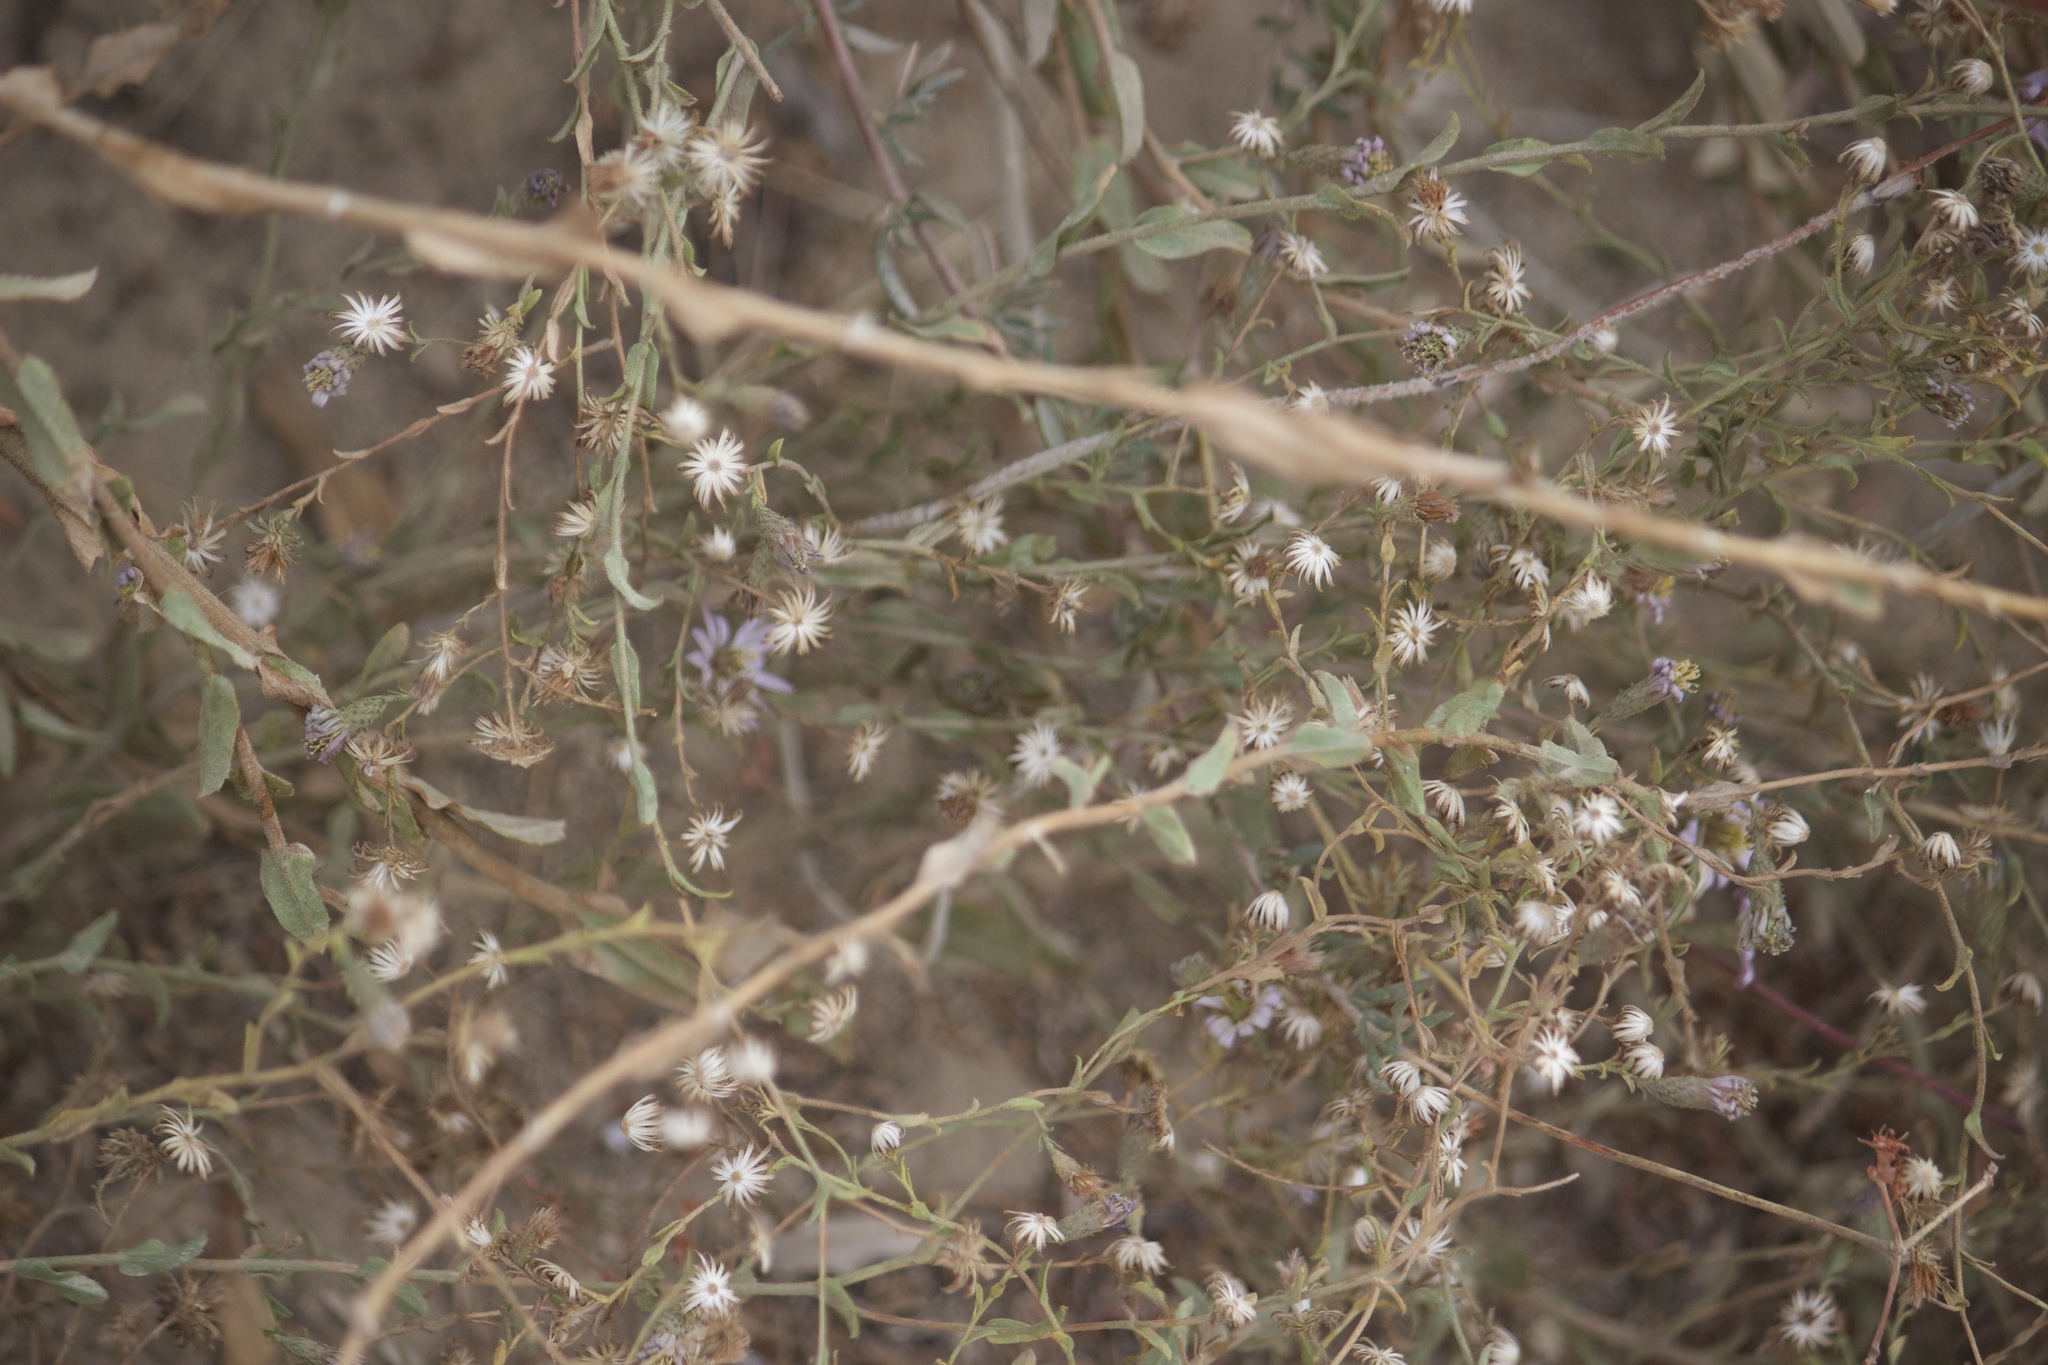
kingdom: Plantae
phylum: Tracheophyta
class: Magnoliopsida
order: Asterales
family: Asteraceae
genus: Corethrogyne
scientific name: Corethrogyne filaginifolia
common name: Sand-aster
